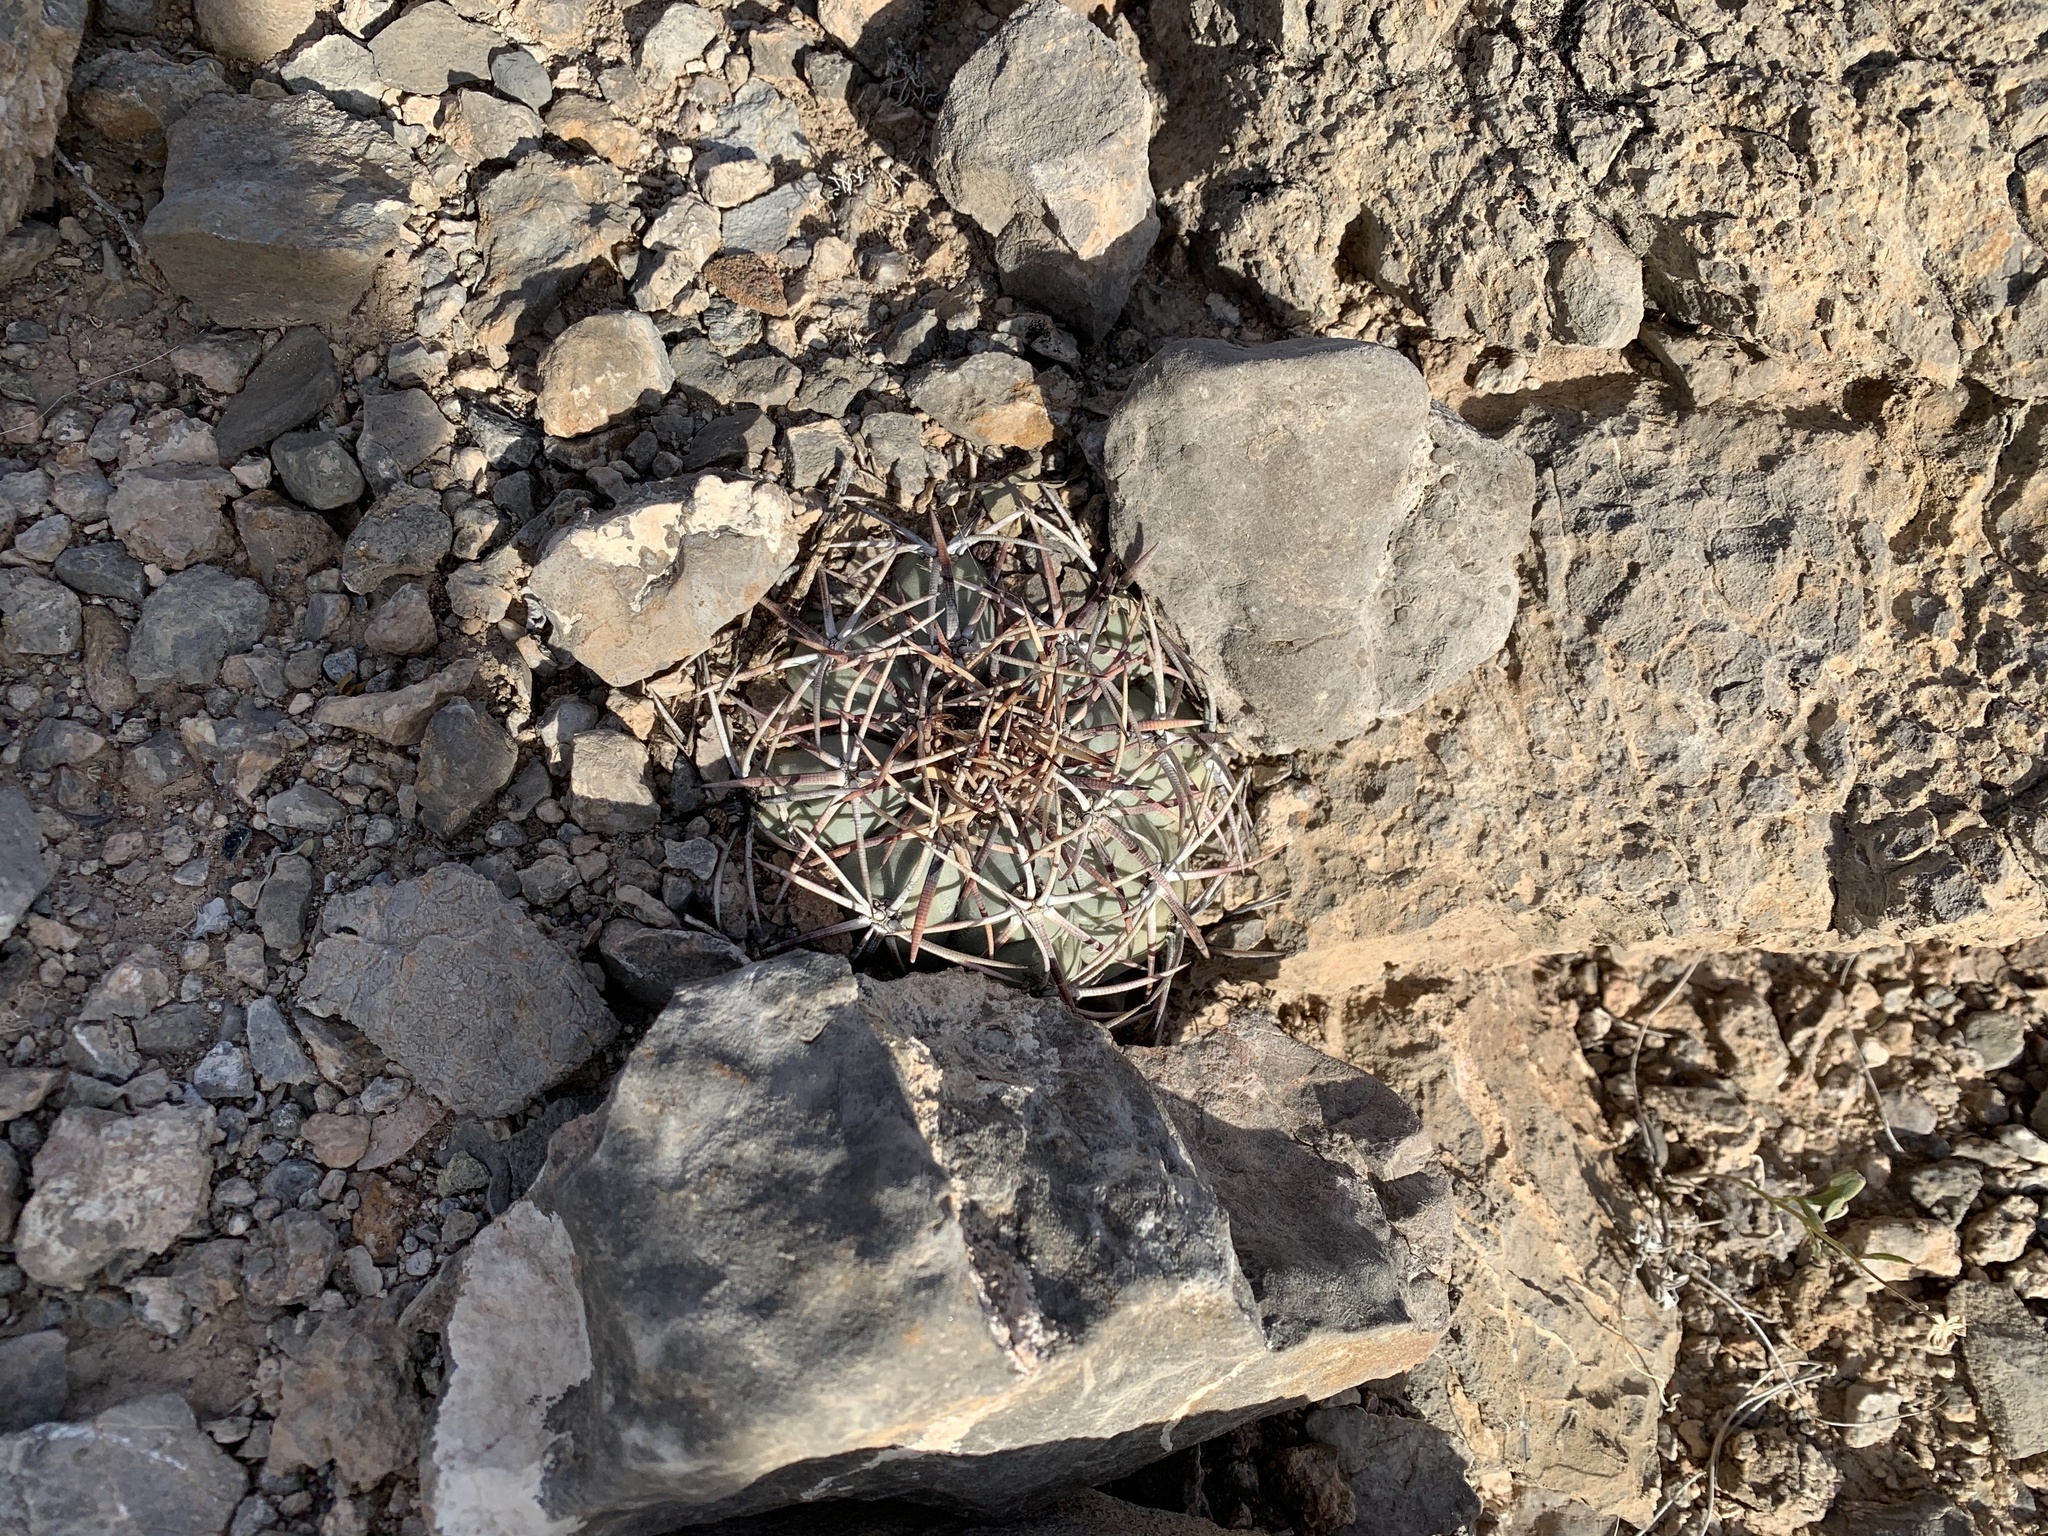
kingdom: Plantae
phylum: Tracheophyta
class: Magnoliopsida
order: Caryophyllales
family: Cactaceae
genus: Echinocactus
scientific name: Echinocactus horizonthalonius
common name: Devilshead
